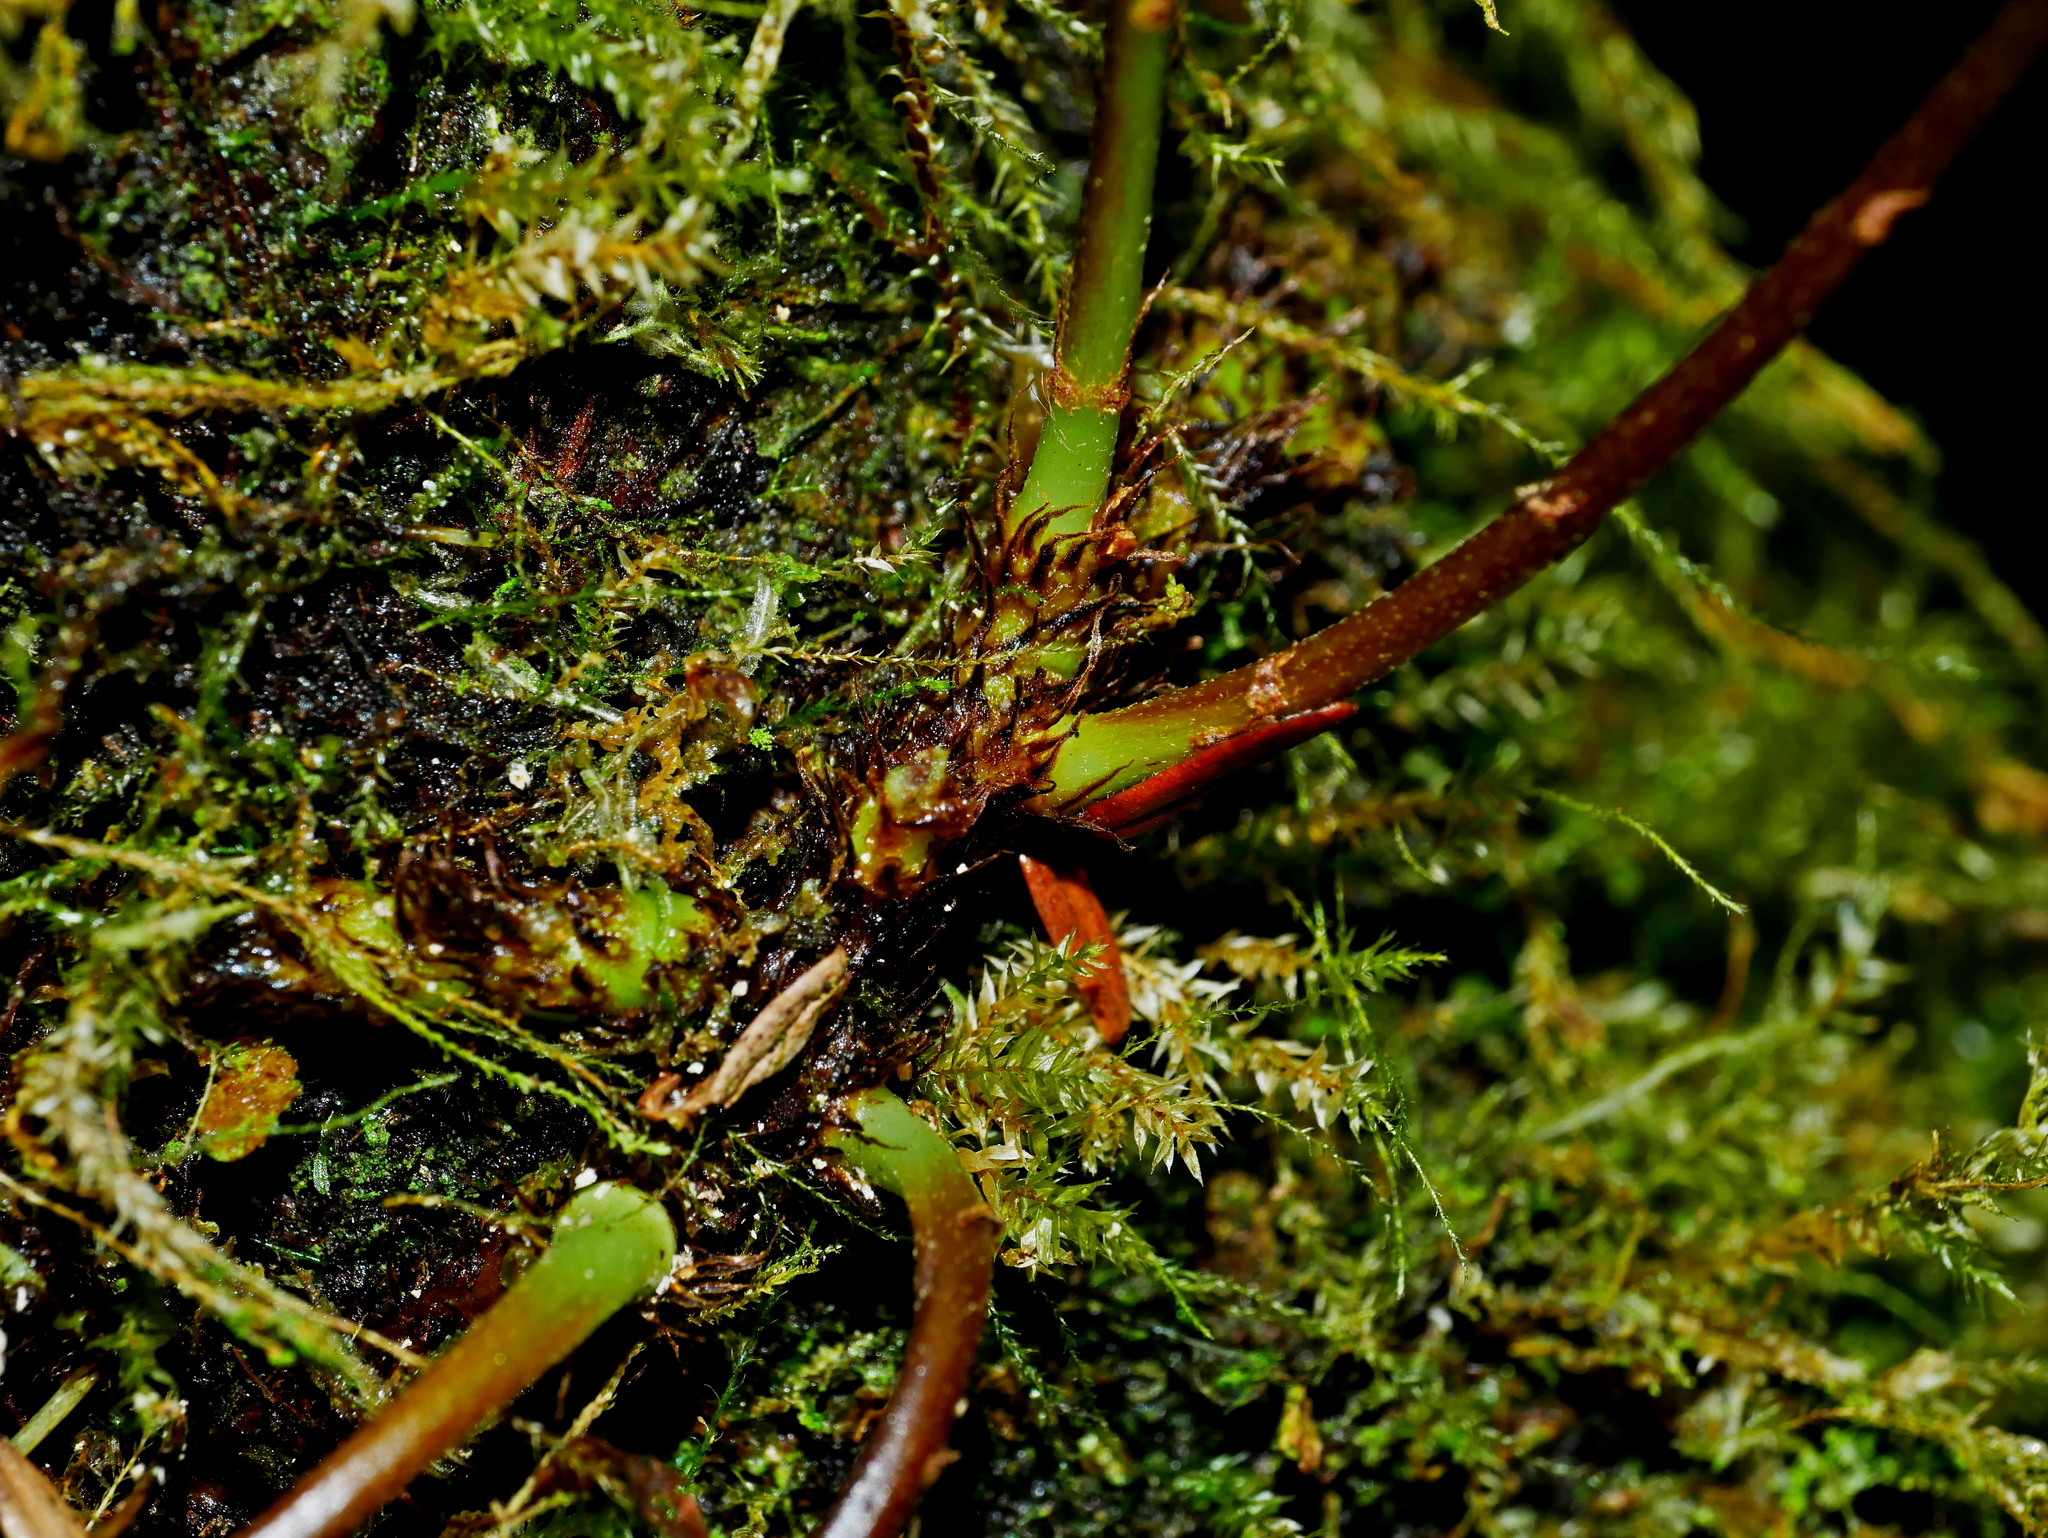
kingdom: Plantae
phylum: Tracheophyta
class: Polypodiopsida
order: Polypodiales
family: Polypodiaceae
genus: Lepisorus
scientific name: Lepisorus obscurevenulosus
